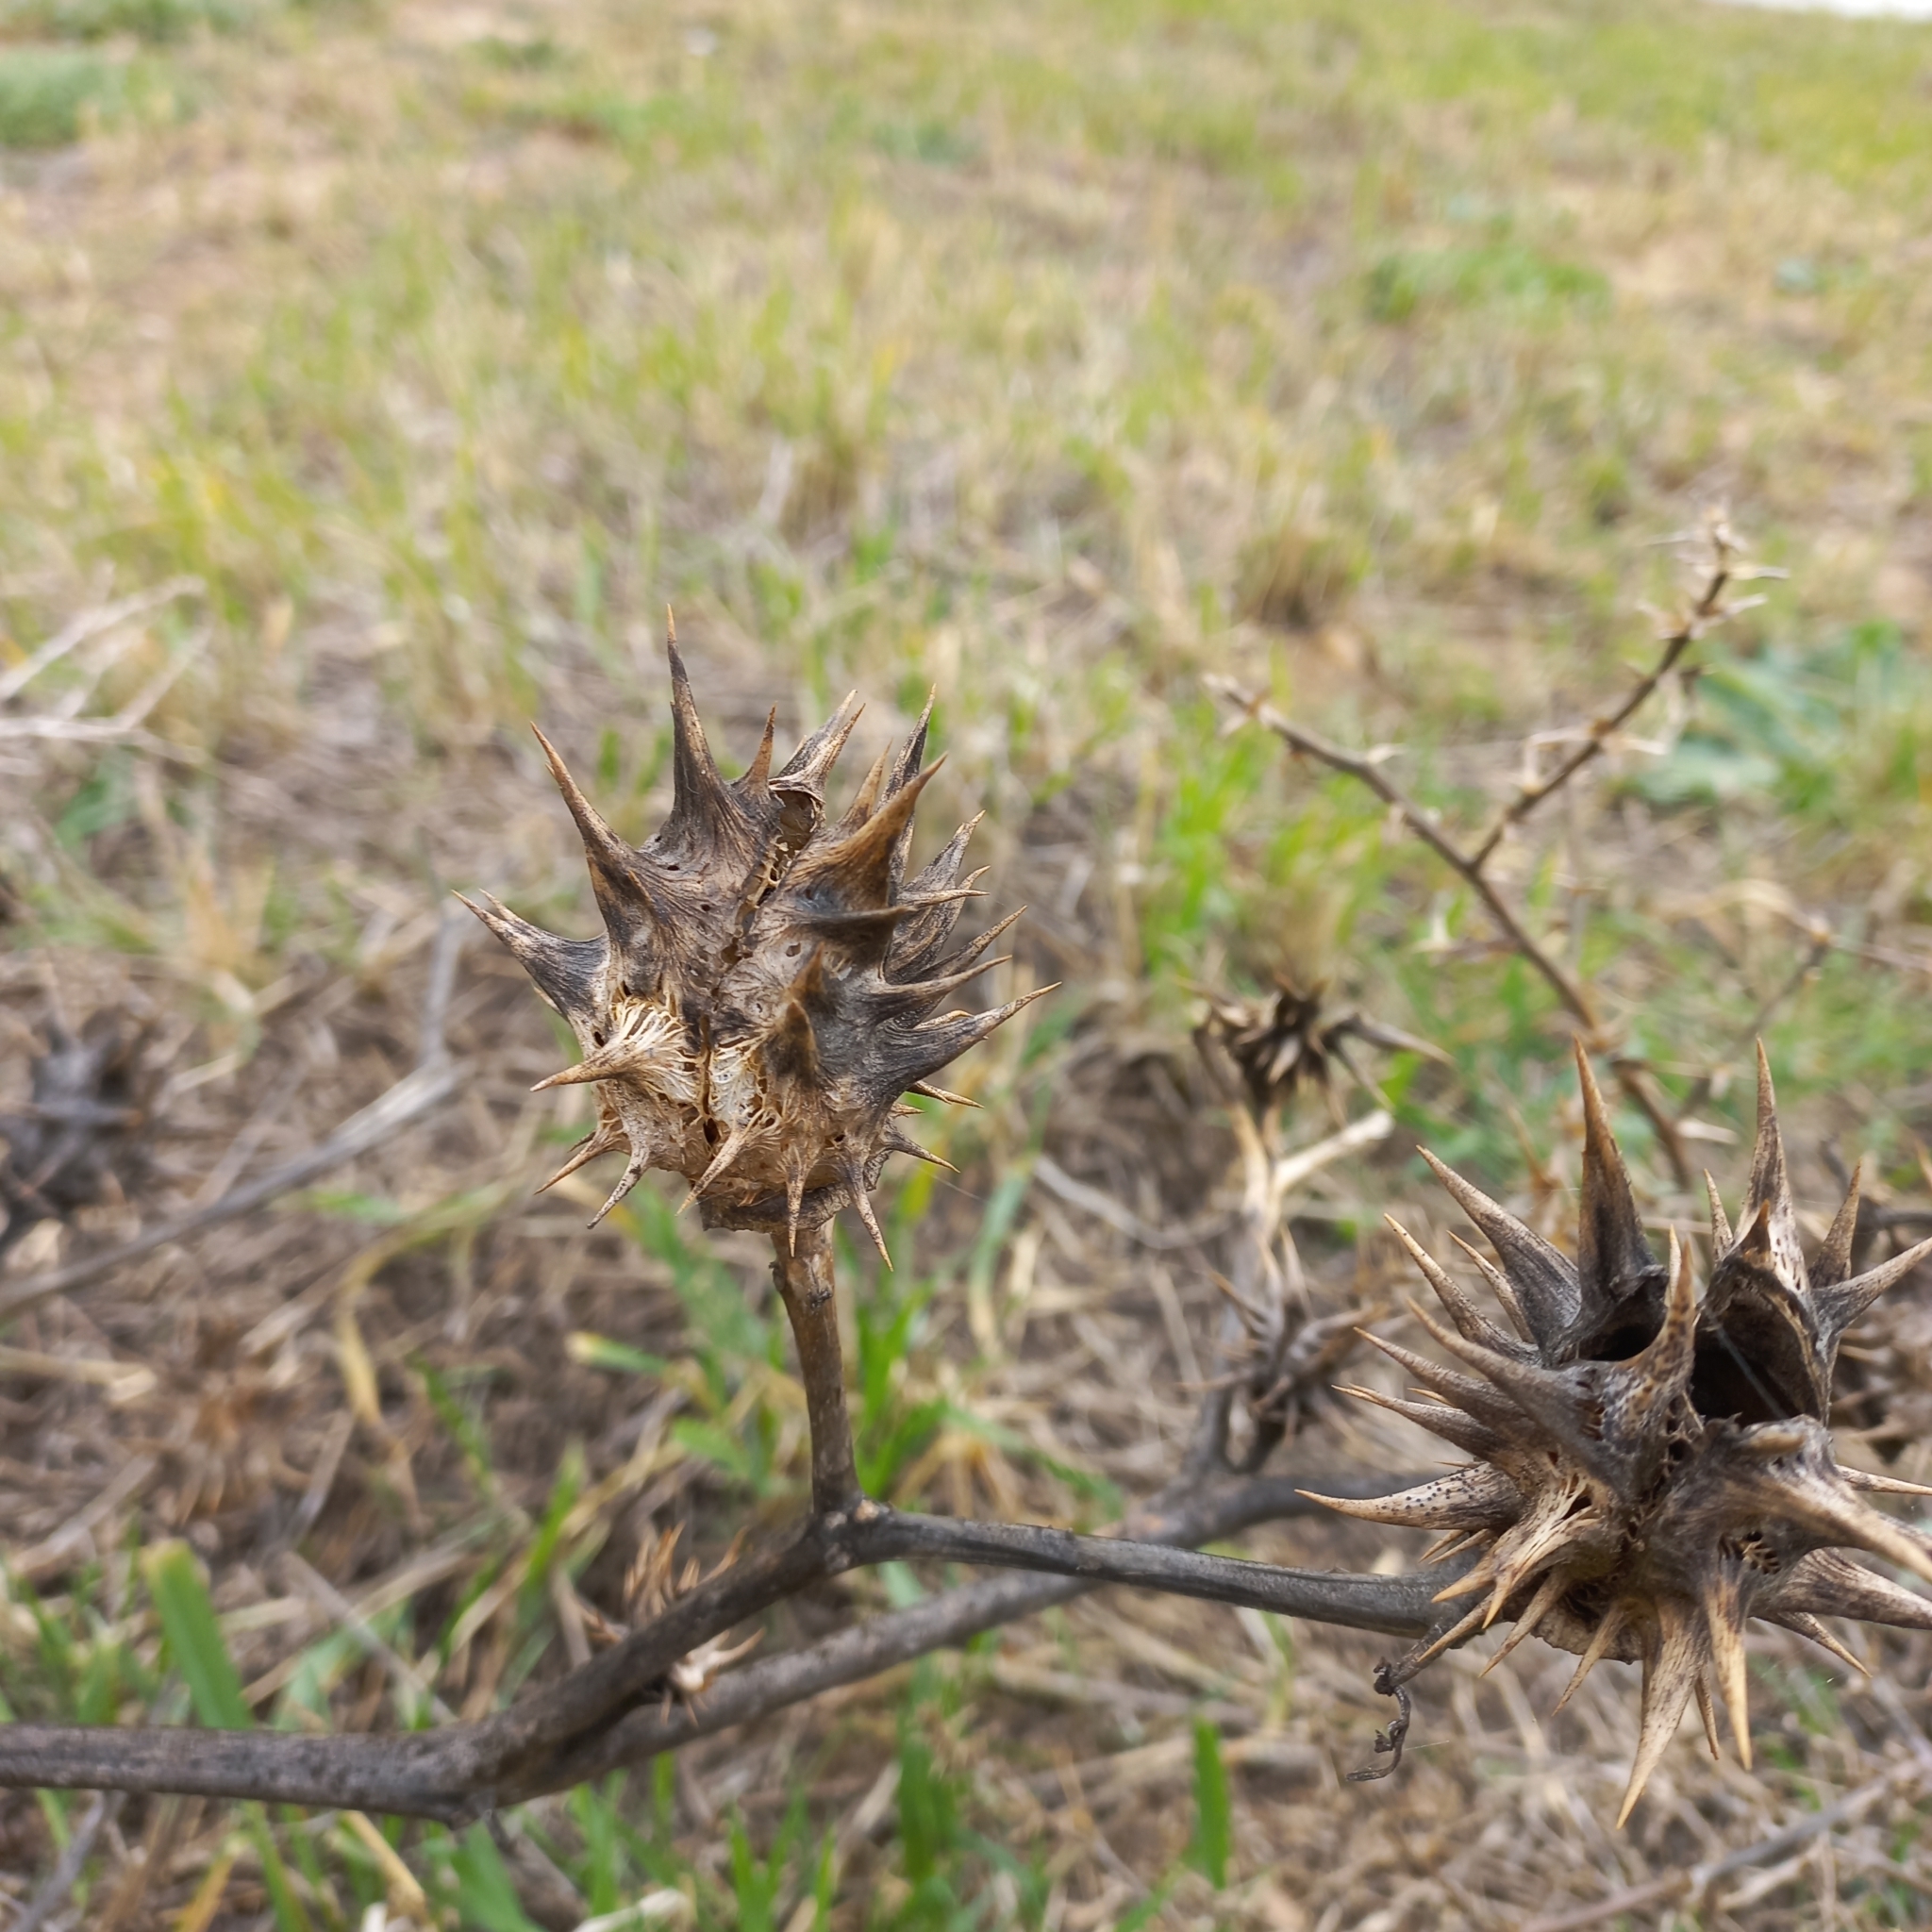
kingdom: Plantae
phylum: Tracheophyta
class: Magnoliopsida
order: Solanales
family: Solanaceae
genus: Datura
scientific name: Datura ferox
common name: Angel's-trumpets
